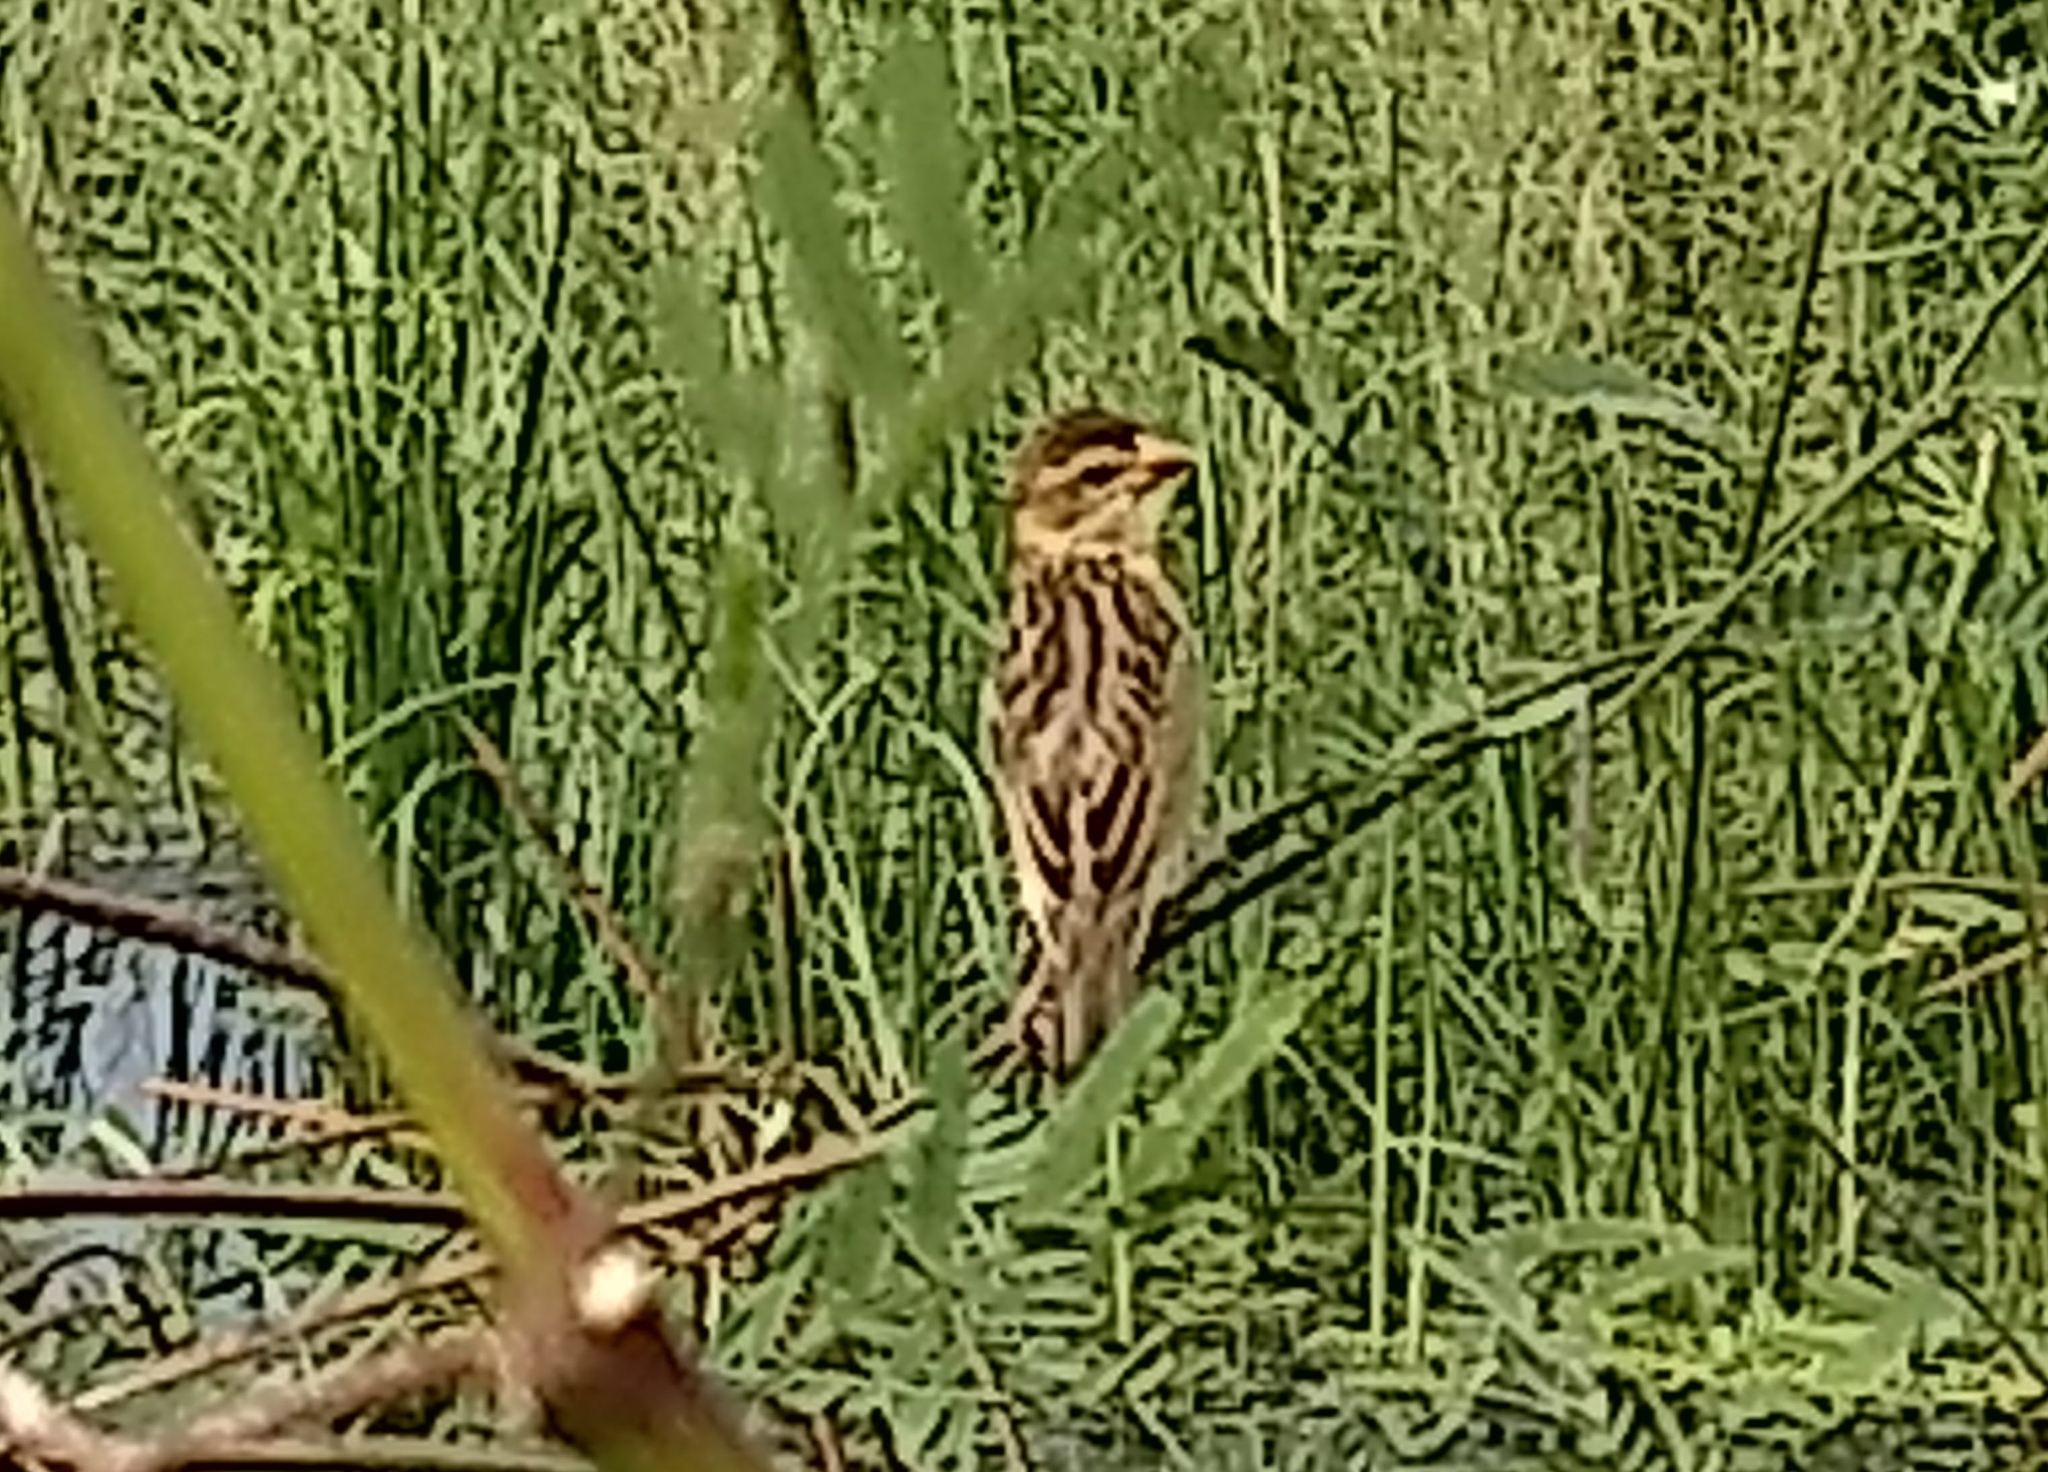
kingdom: Animalia
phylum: Chordata
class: Aves
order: Passeriformes
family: Ploceidae
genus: Ploceus
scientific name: Ploceus manyar
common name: Streaked weaver
